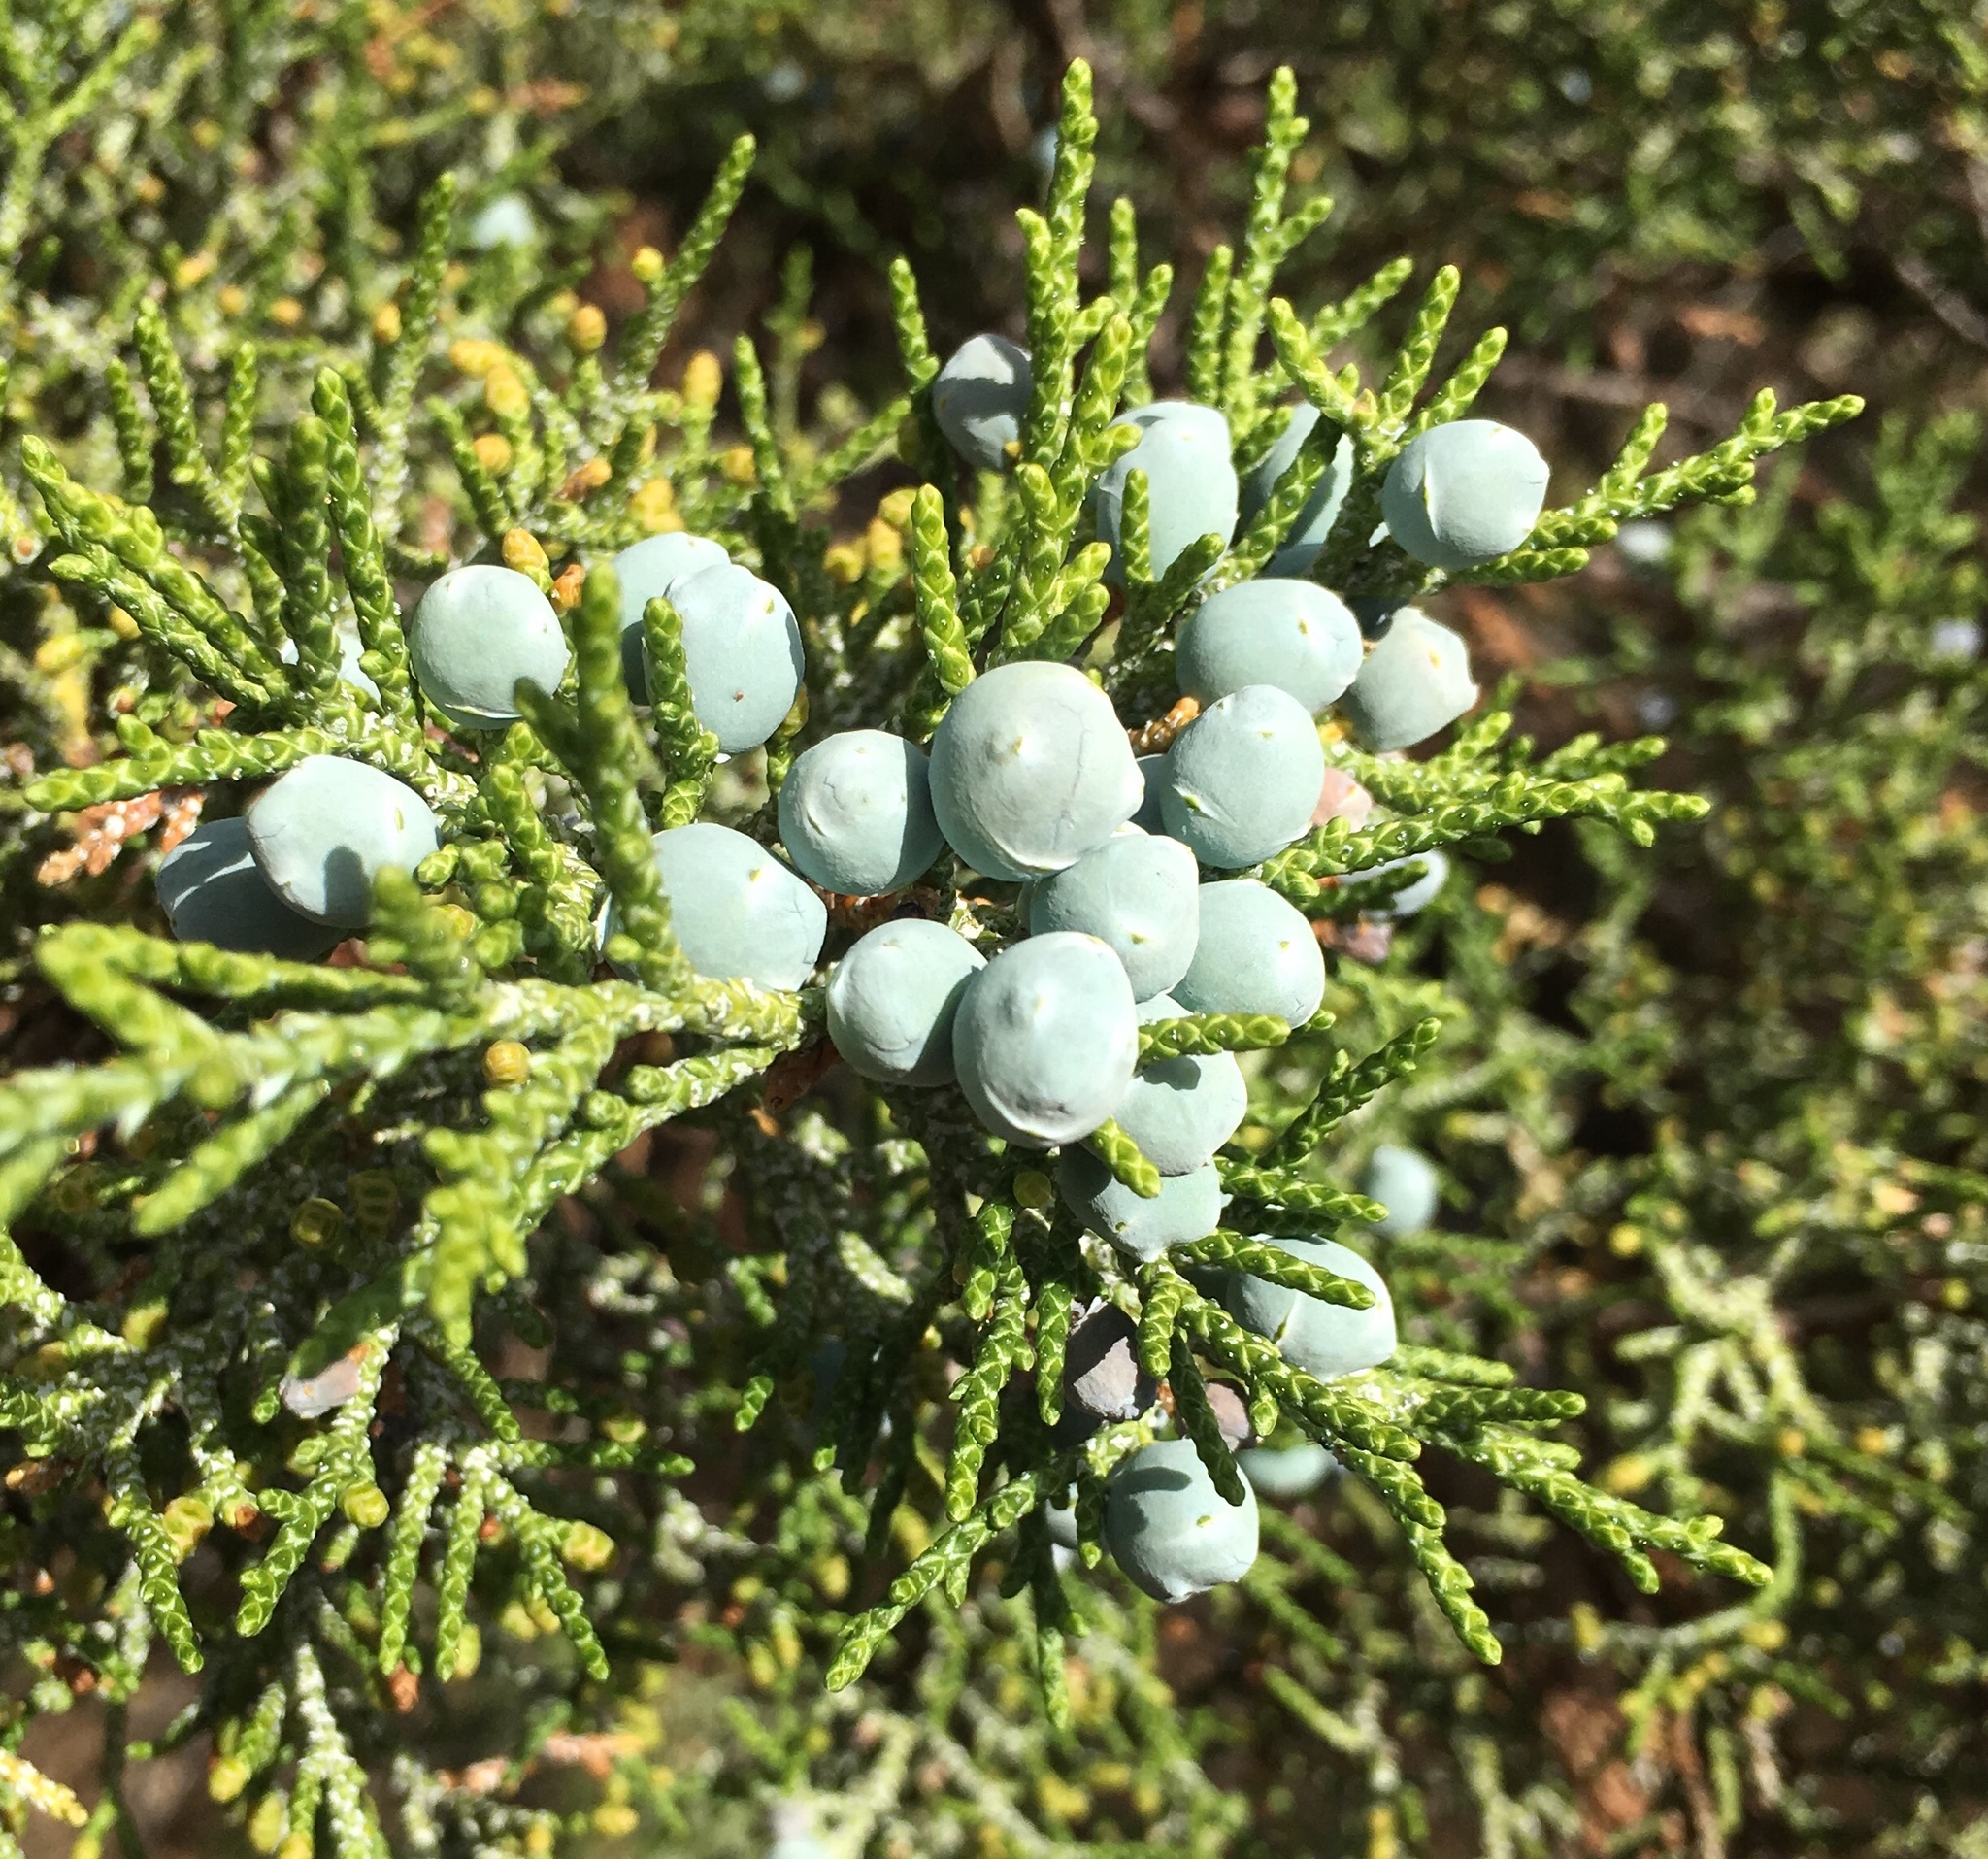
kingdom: Plantae
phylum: Tracheophyta
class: Pinopsida
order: Pinales
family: Cupressaceae
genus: Juniperus
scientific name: Juniperus occidentalis
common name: Western juniper
